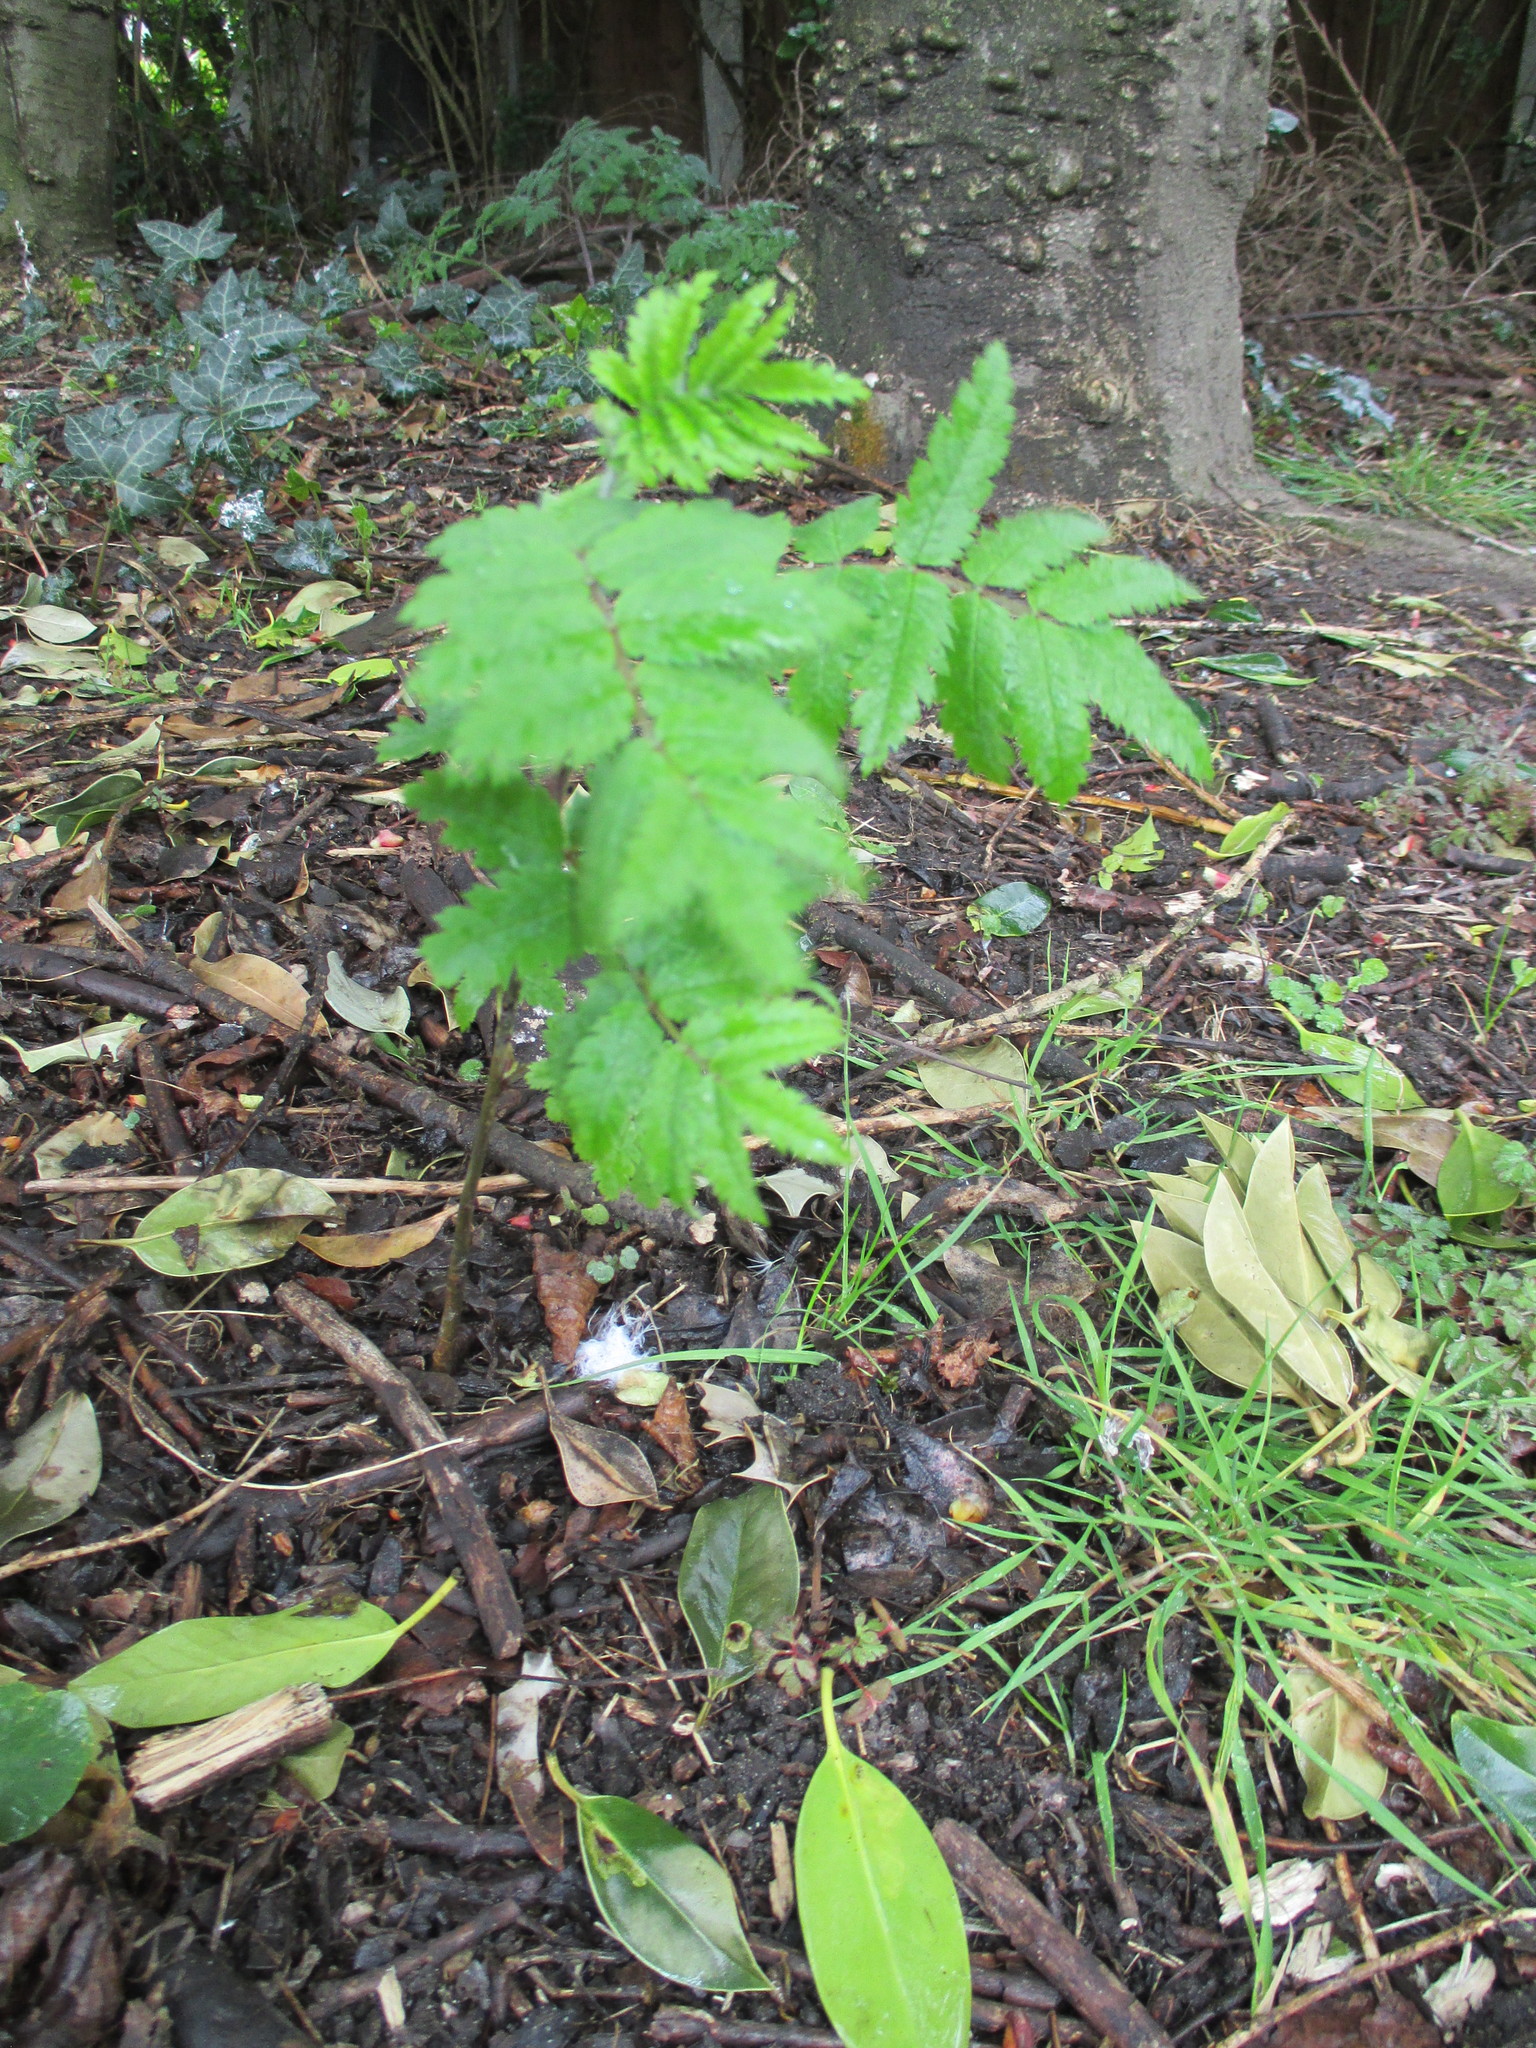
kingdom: Plantae
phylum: Tracheophyta
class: Magnoliopsida
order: Rosales
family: Rosaceae
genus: Sorbus
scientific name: Sorbus aucuparia
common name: Rowan
